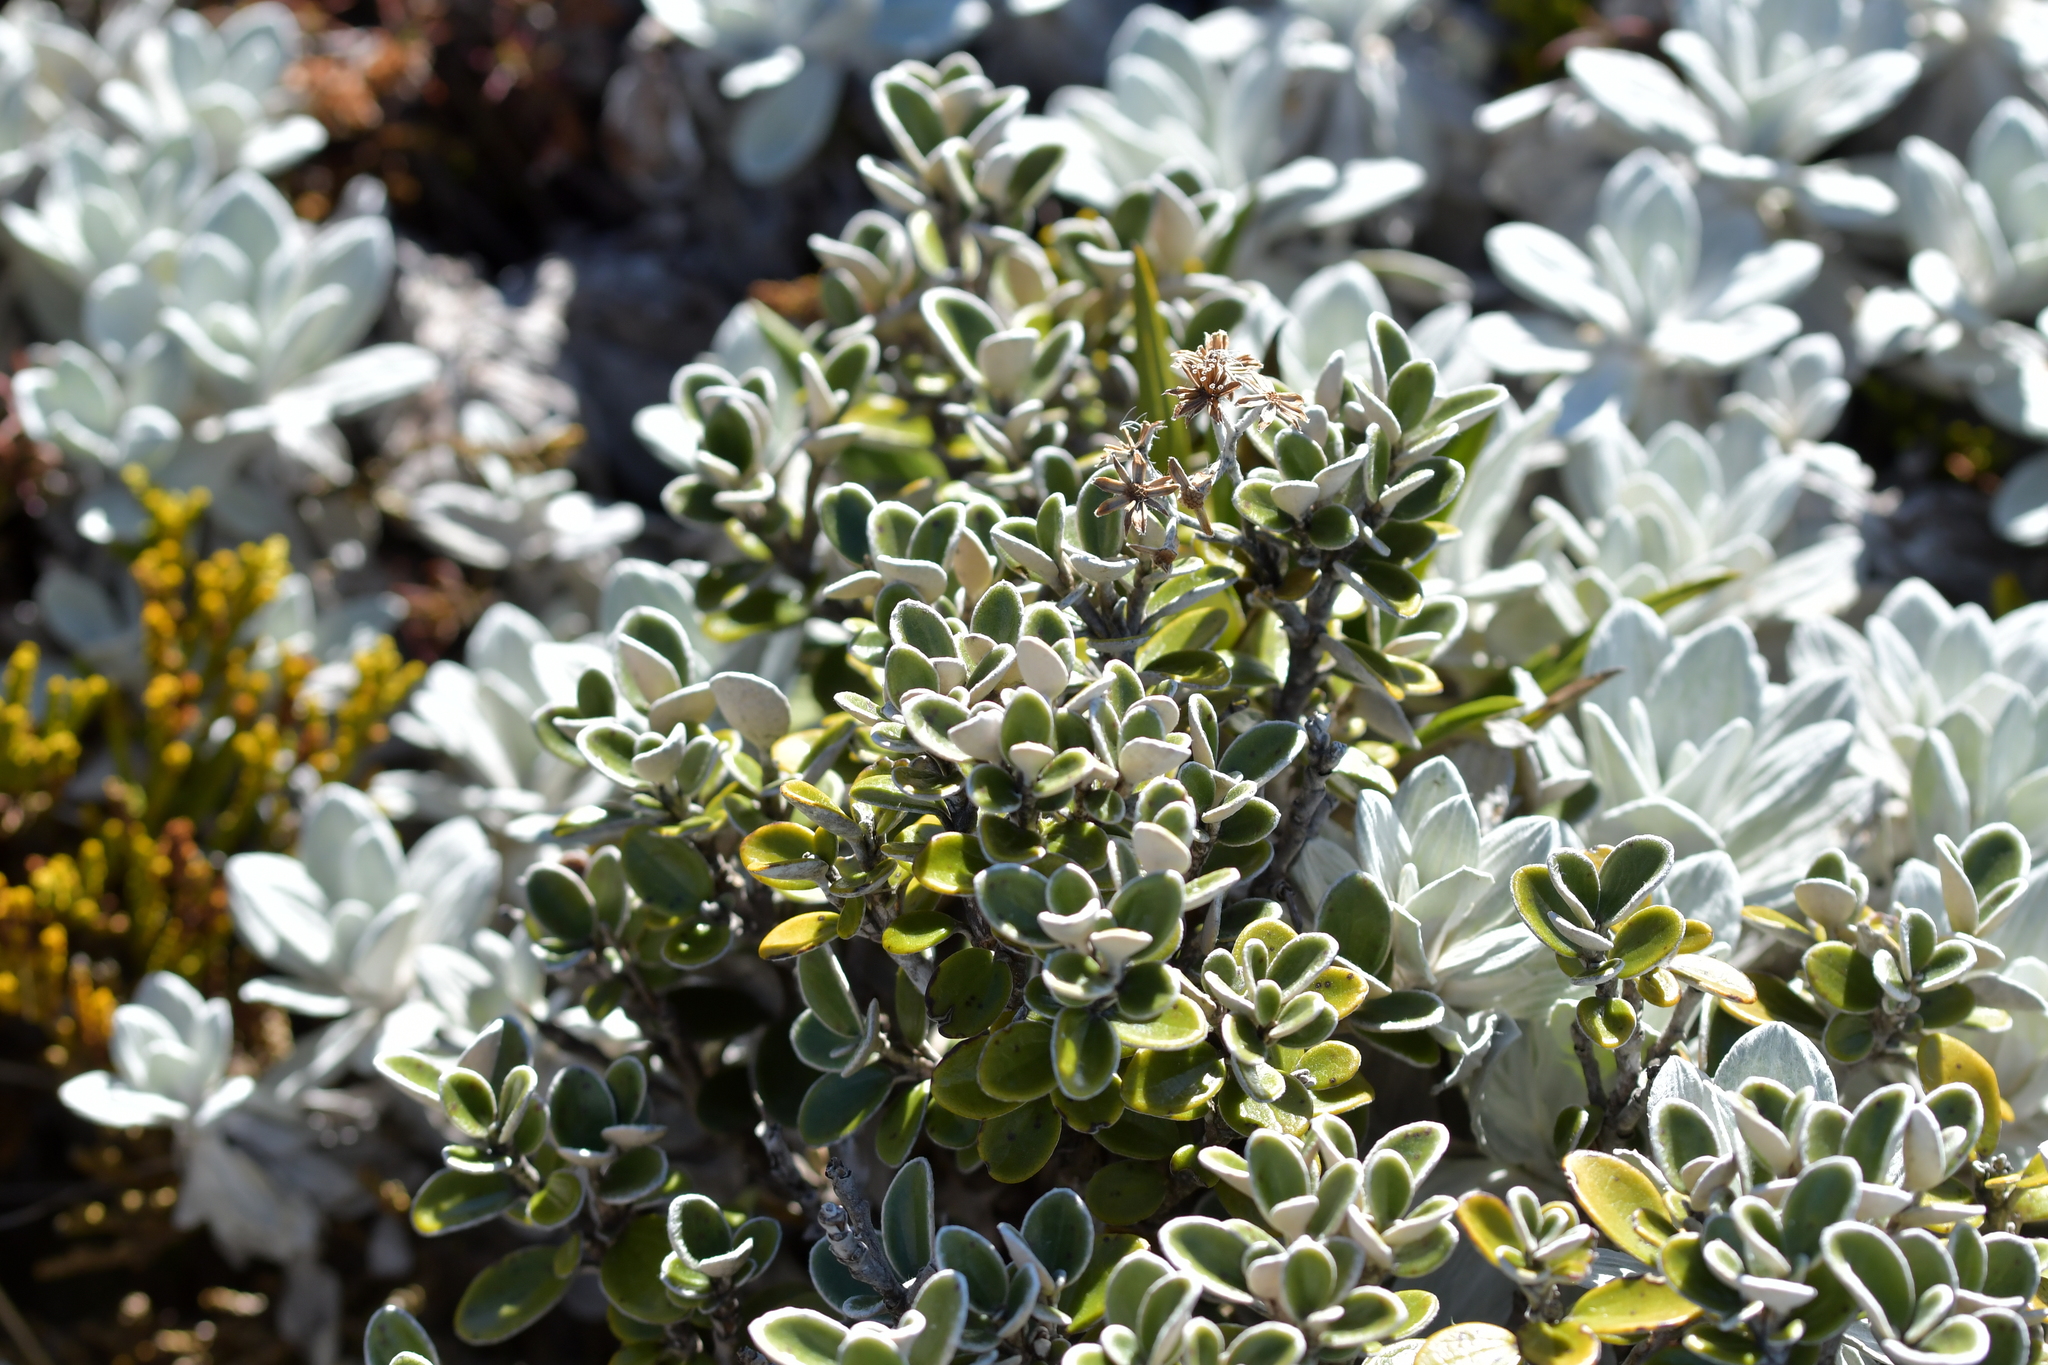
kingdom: Plantae
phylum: Tracheophyta
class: Magnoliopsida
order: Asterales
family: Asteraceae
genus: Brachyglottis
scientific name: Brachyglottis bidwillii
